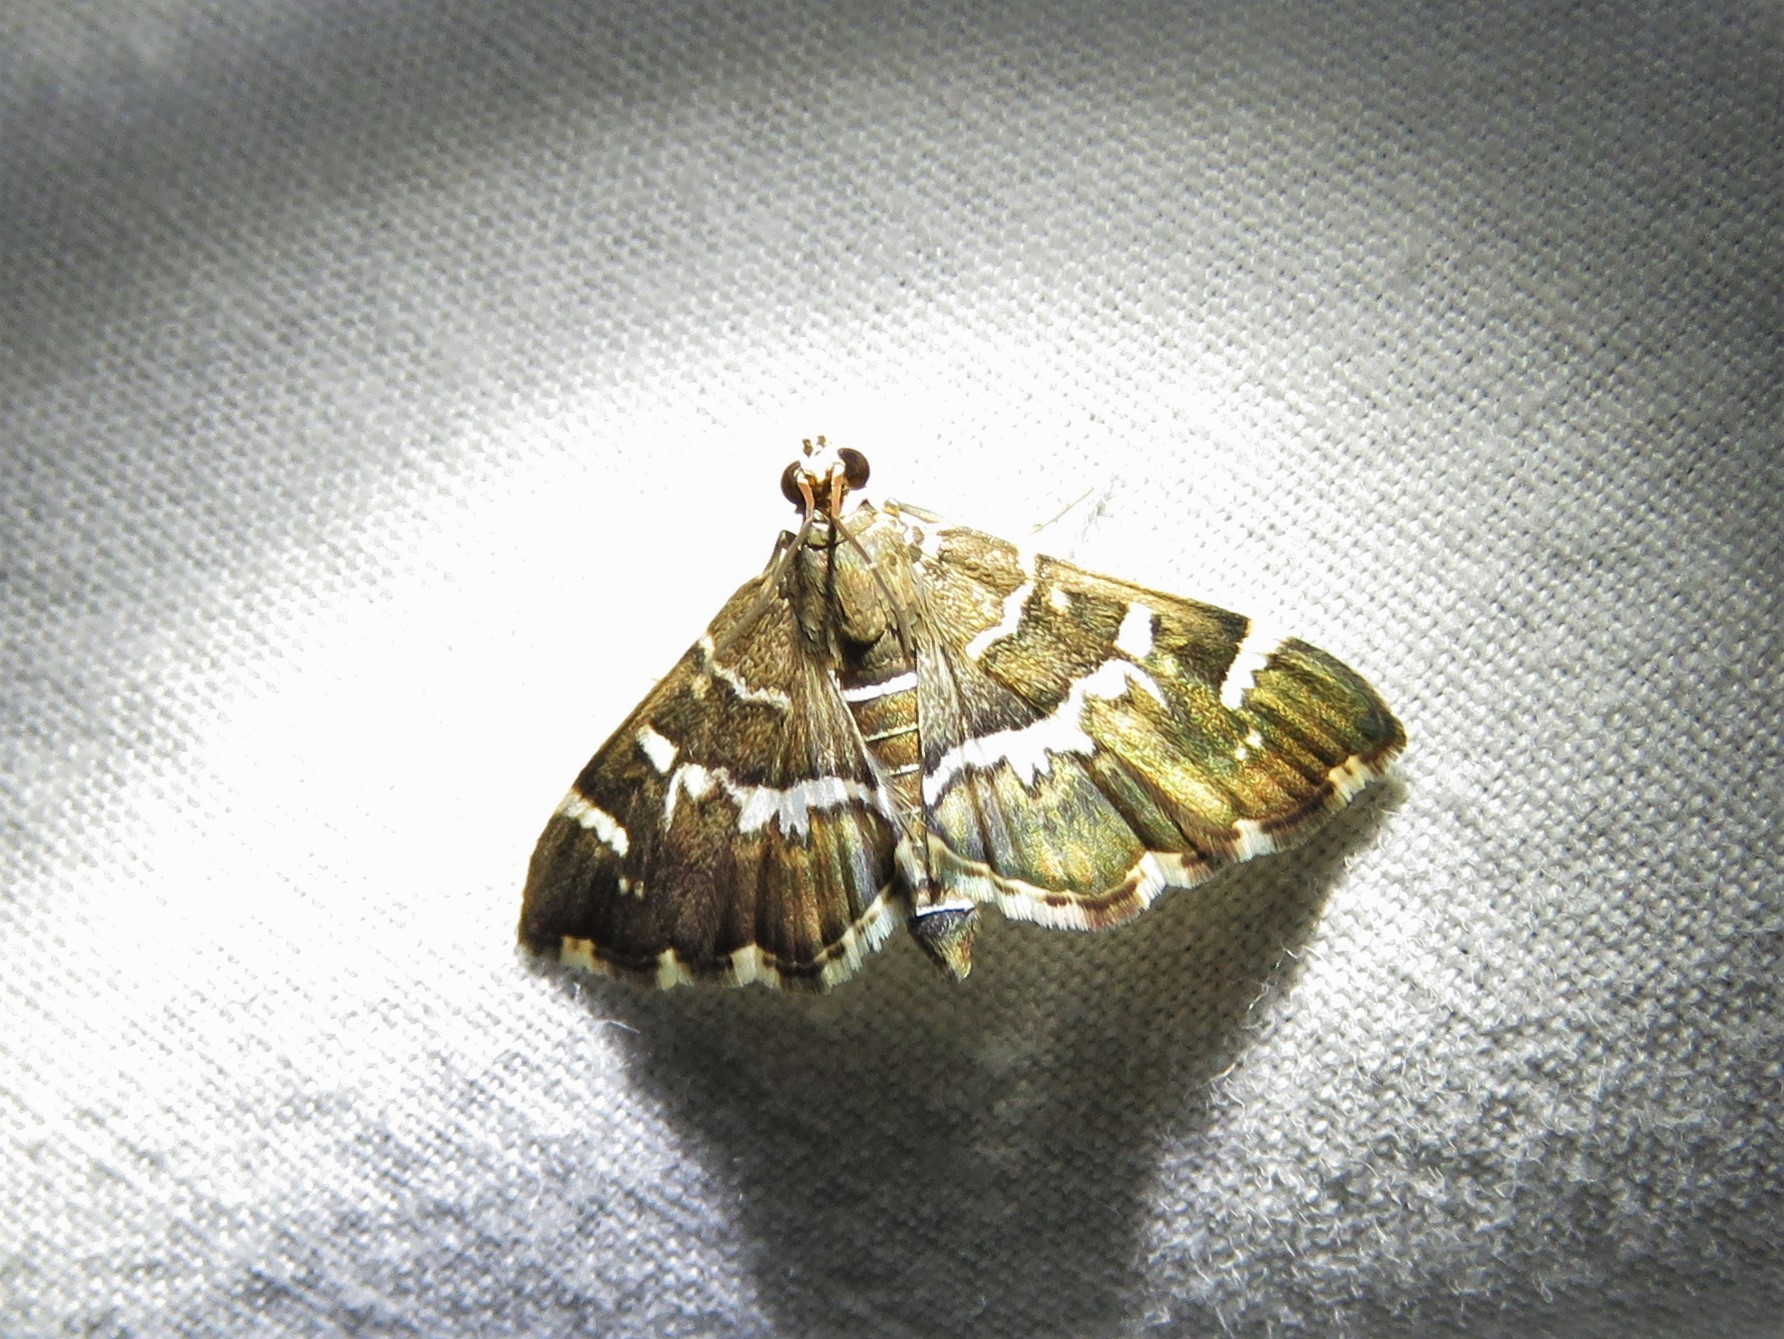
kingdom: Animalia
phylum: Arthropoda
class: Insecta
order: Lepidoptera
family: Crambidae
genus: Hymenia
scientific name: Hymenia perspectalis
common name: Spotted beet webworm
